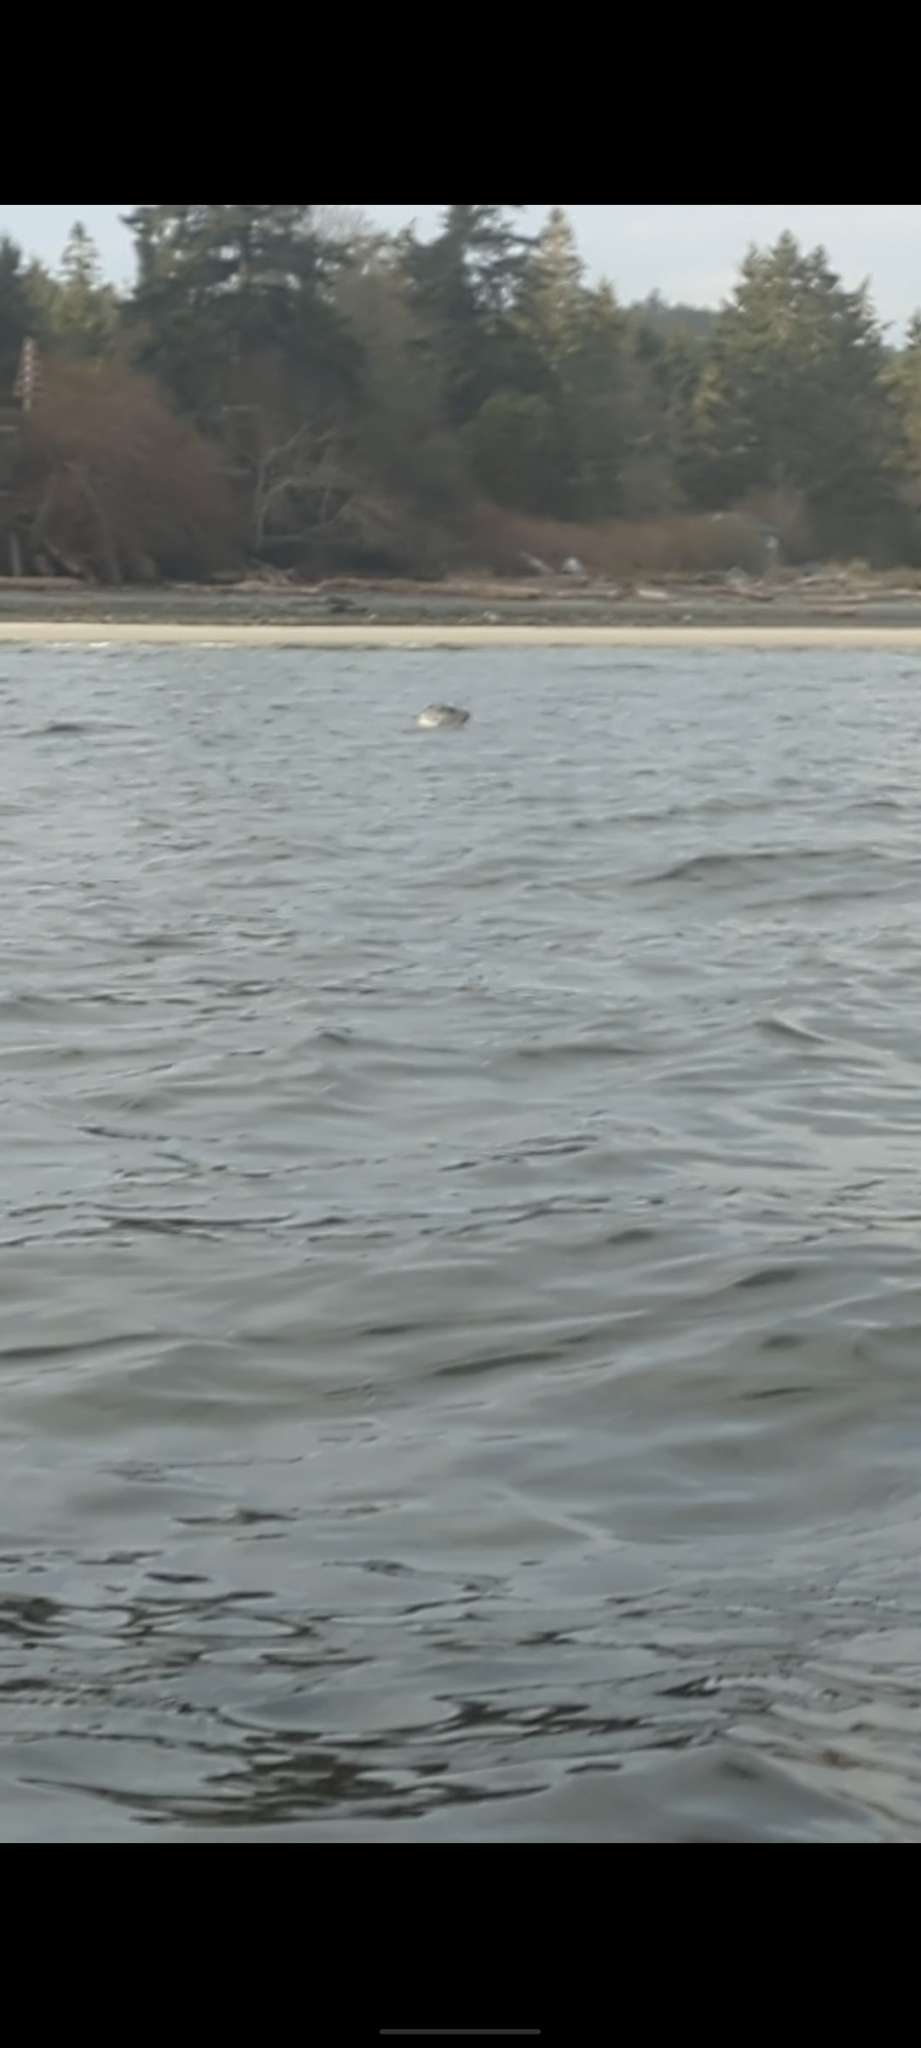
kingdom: Animalia
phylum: Chordata
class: Mammalia
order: Carnivora
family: Phocidae
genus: Phoca
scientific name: Phoca vitulina
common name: Harbor seal
